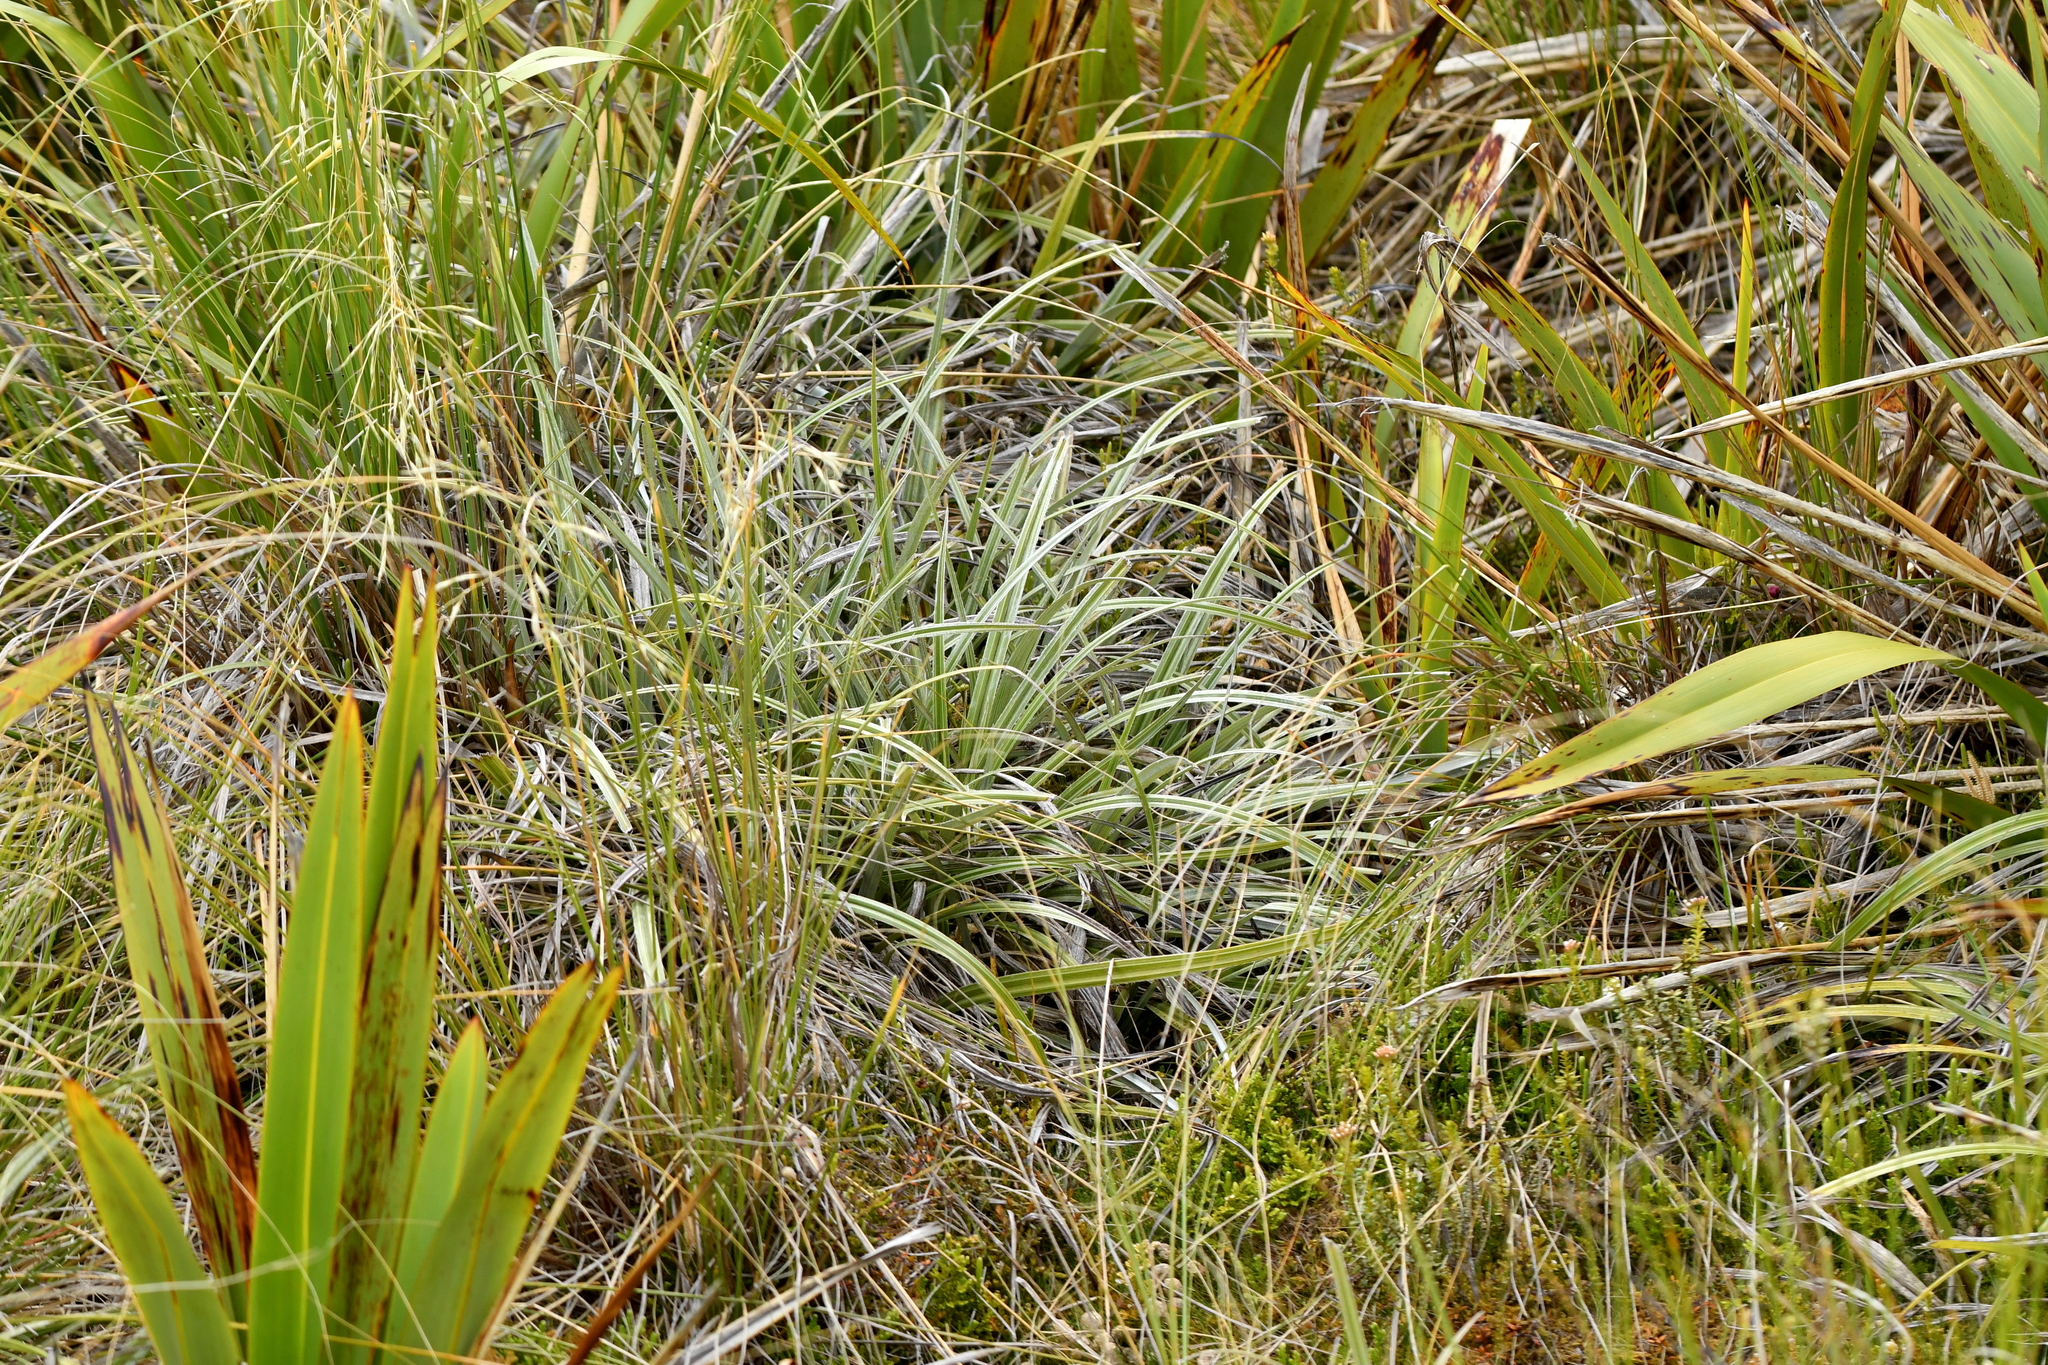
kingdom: Plantae
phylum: Tracheophyta
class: Liliopsida
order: Asparagales
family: Asteliaceae
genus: Astelia
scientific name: Astelia nervosa
